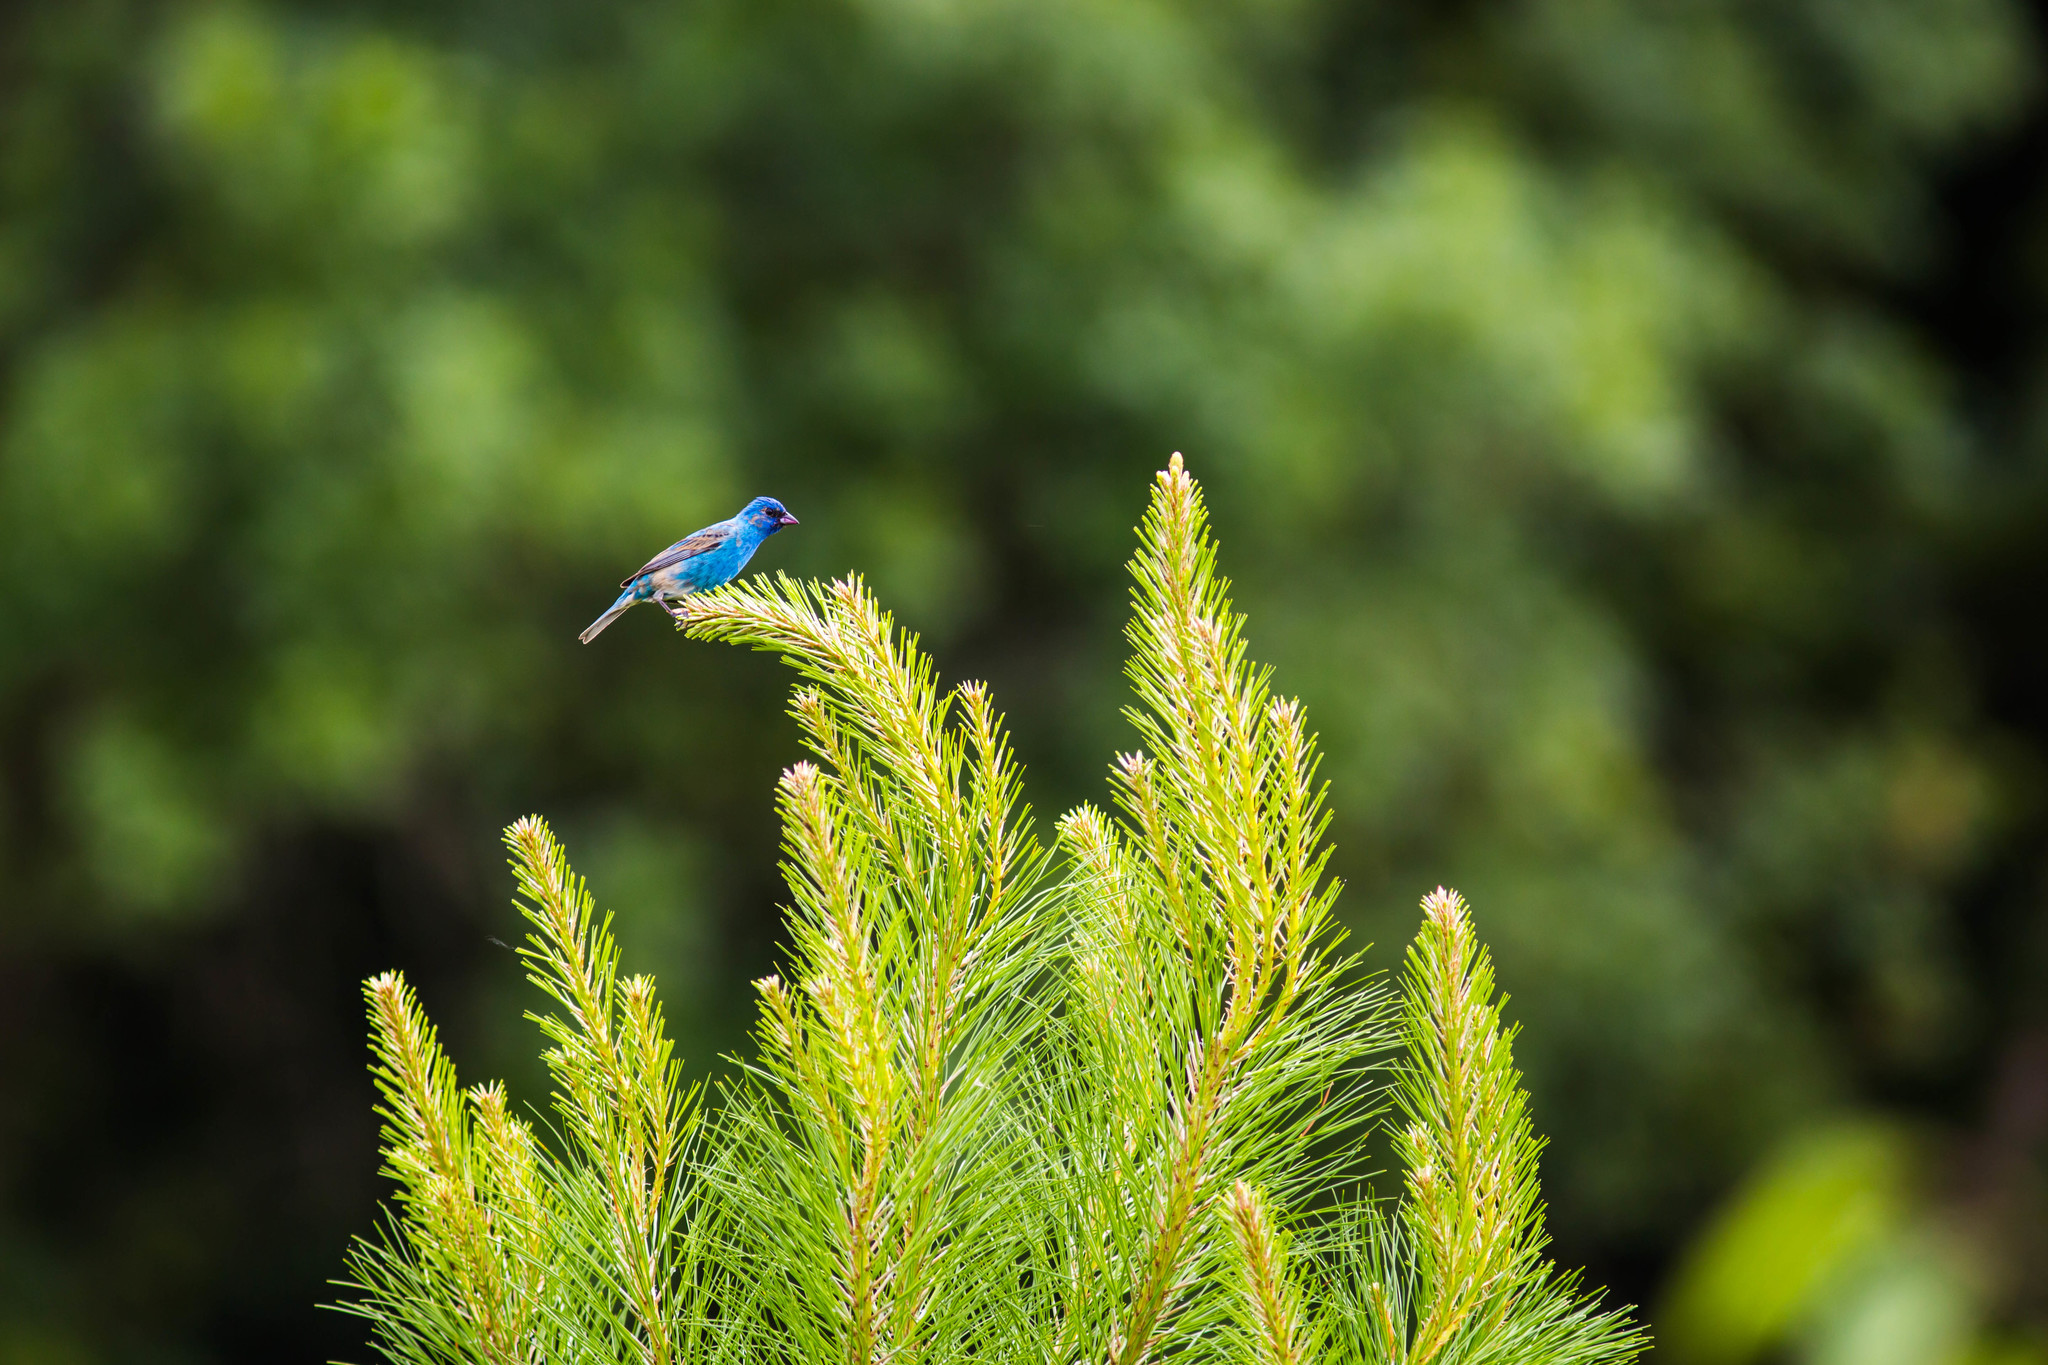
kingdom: Animalia
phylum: Chordata
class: Aves
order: Passeriformes
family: Cardinalidae
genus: Passerina
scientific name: Passerina cyanea
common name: Indigo bunting
